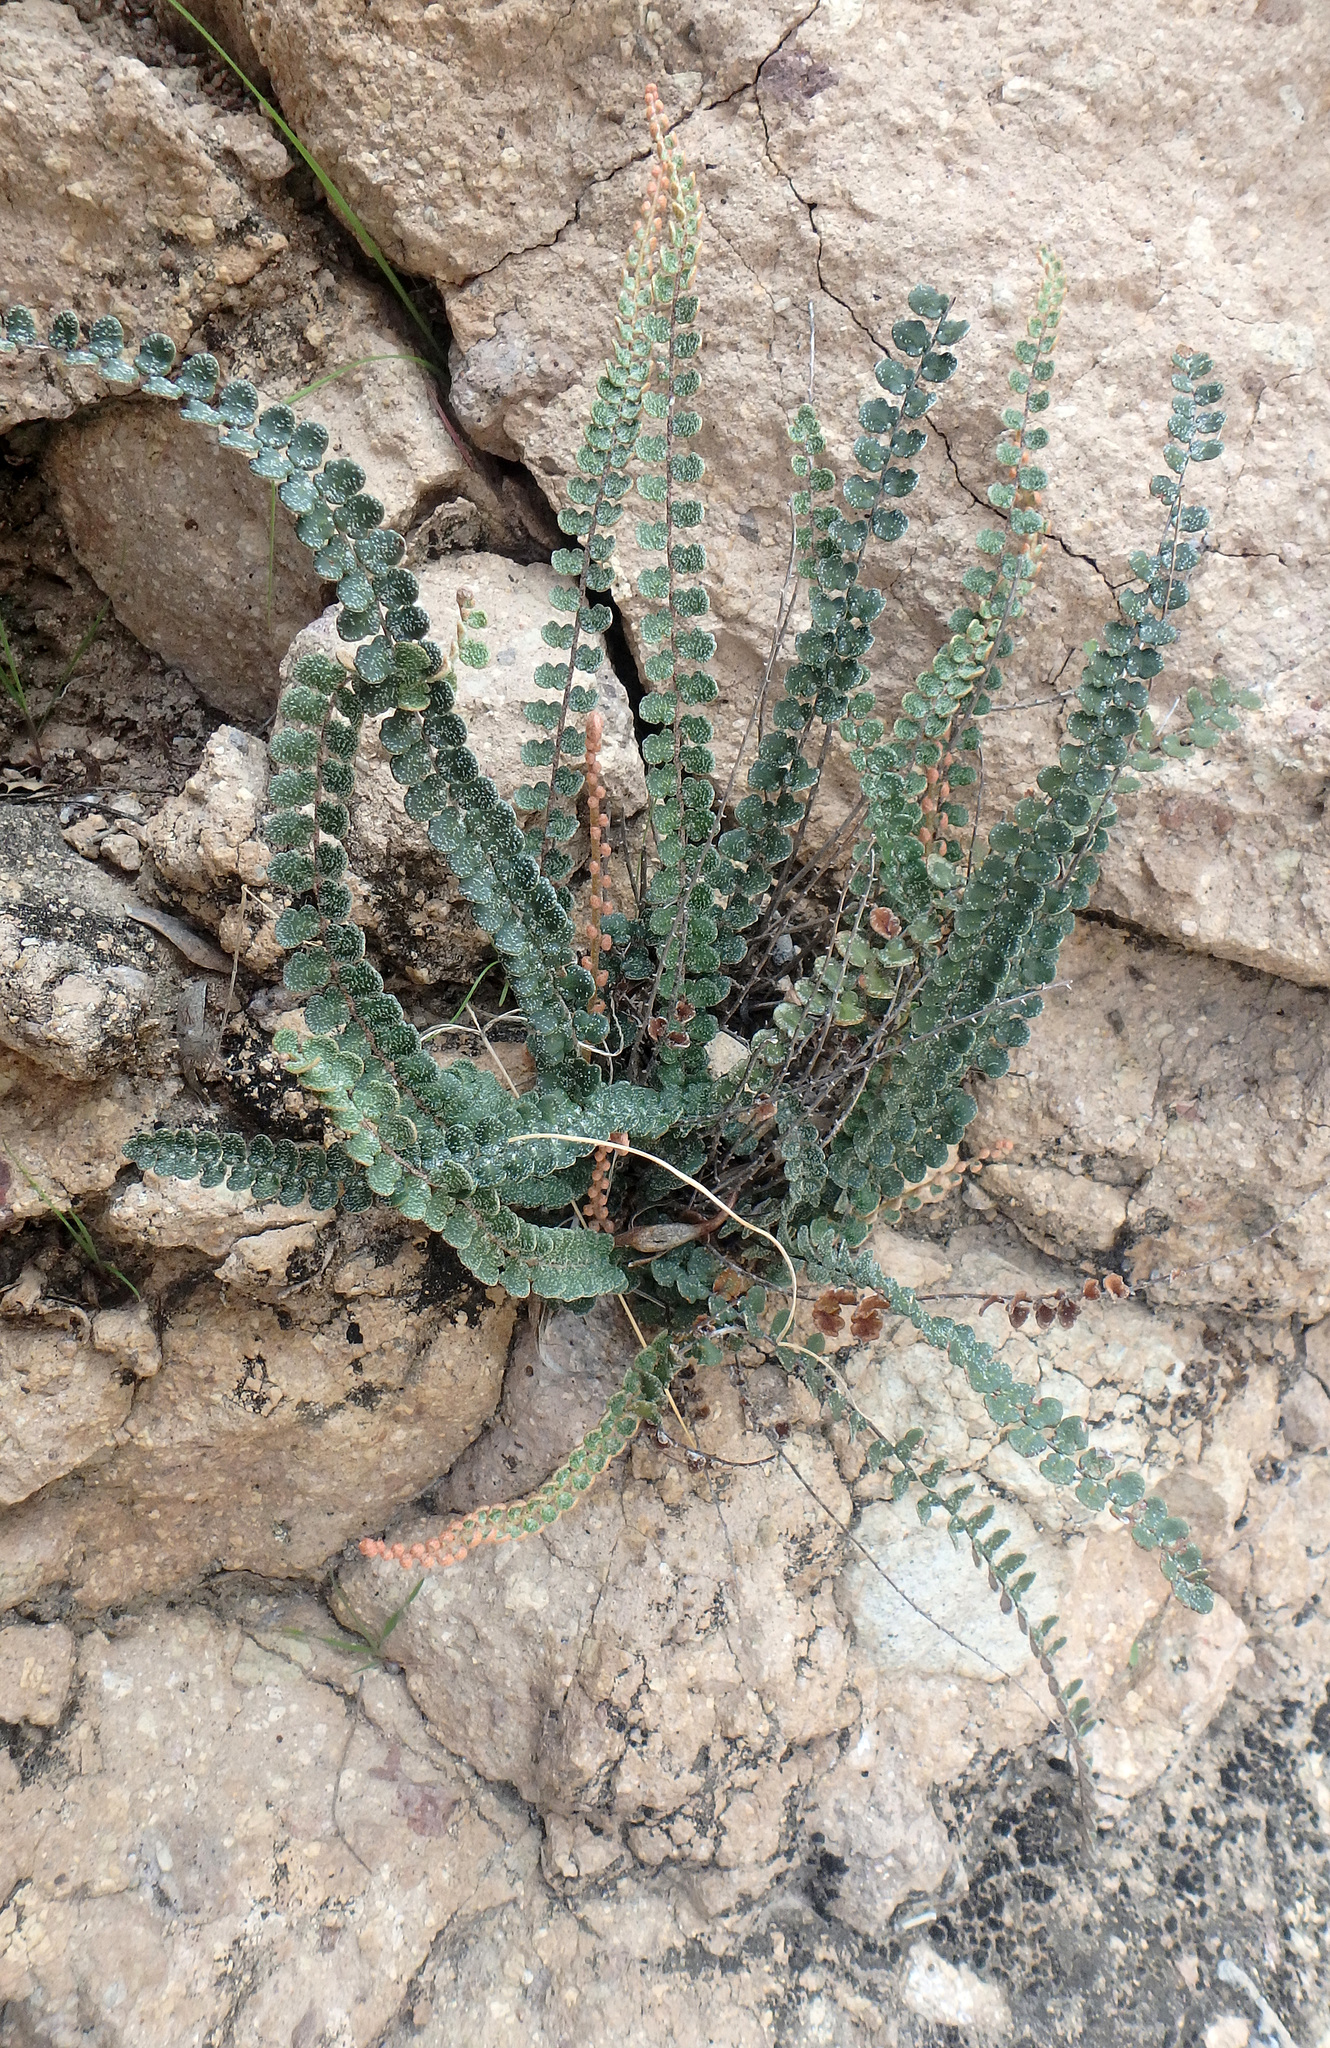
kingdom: Plantae
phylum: Tracheophyta
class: Polypodiopsida
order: Polypodiales
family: Pteridaceae
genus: Astrolepis
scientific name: Astrolepis cochisensis
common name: Scaly cloak fern
